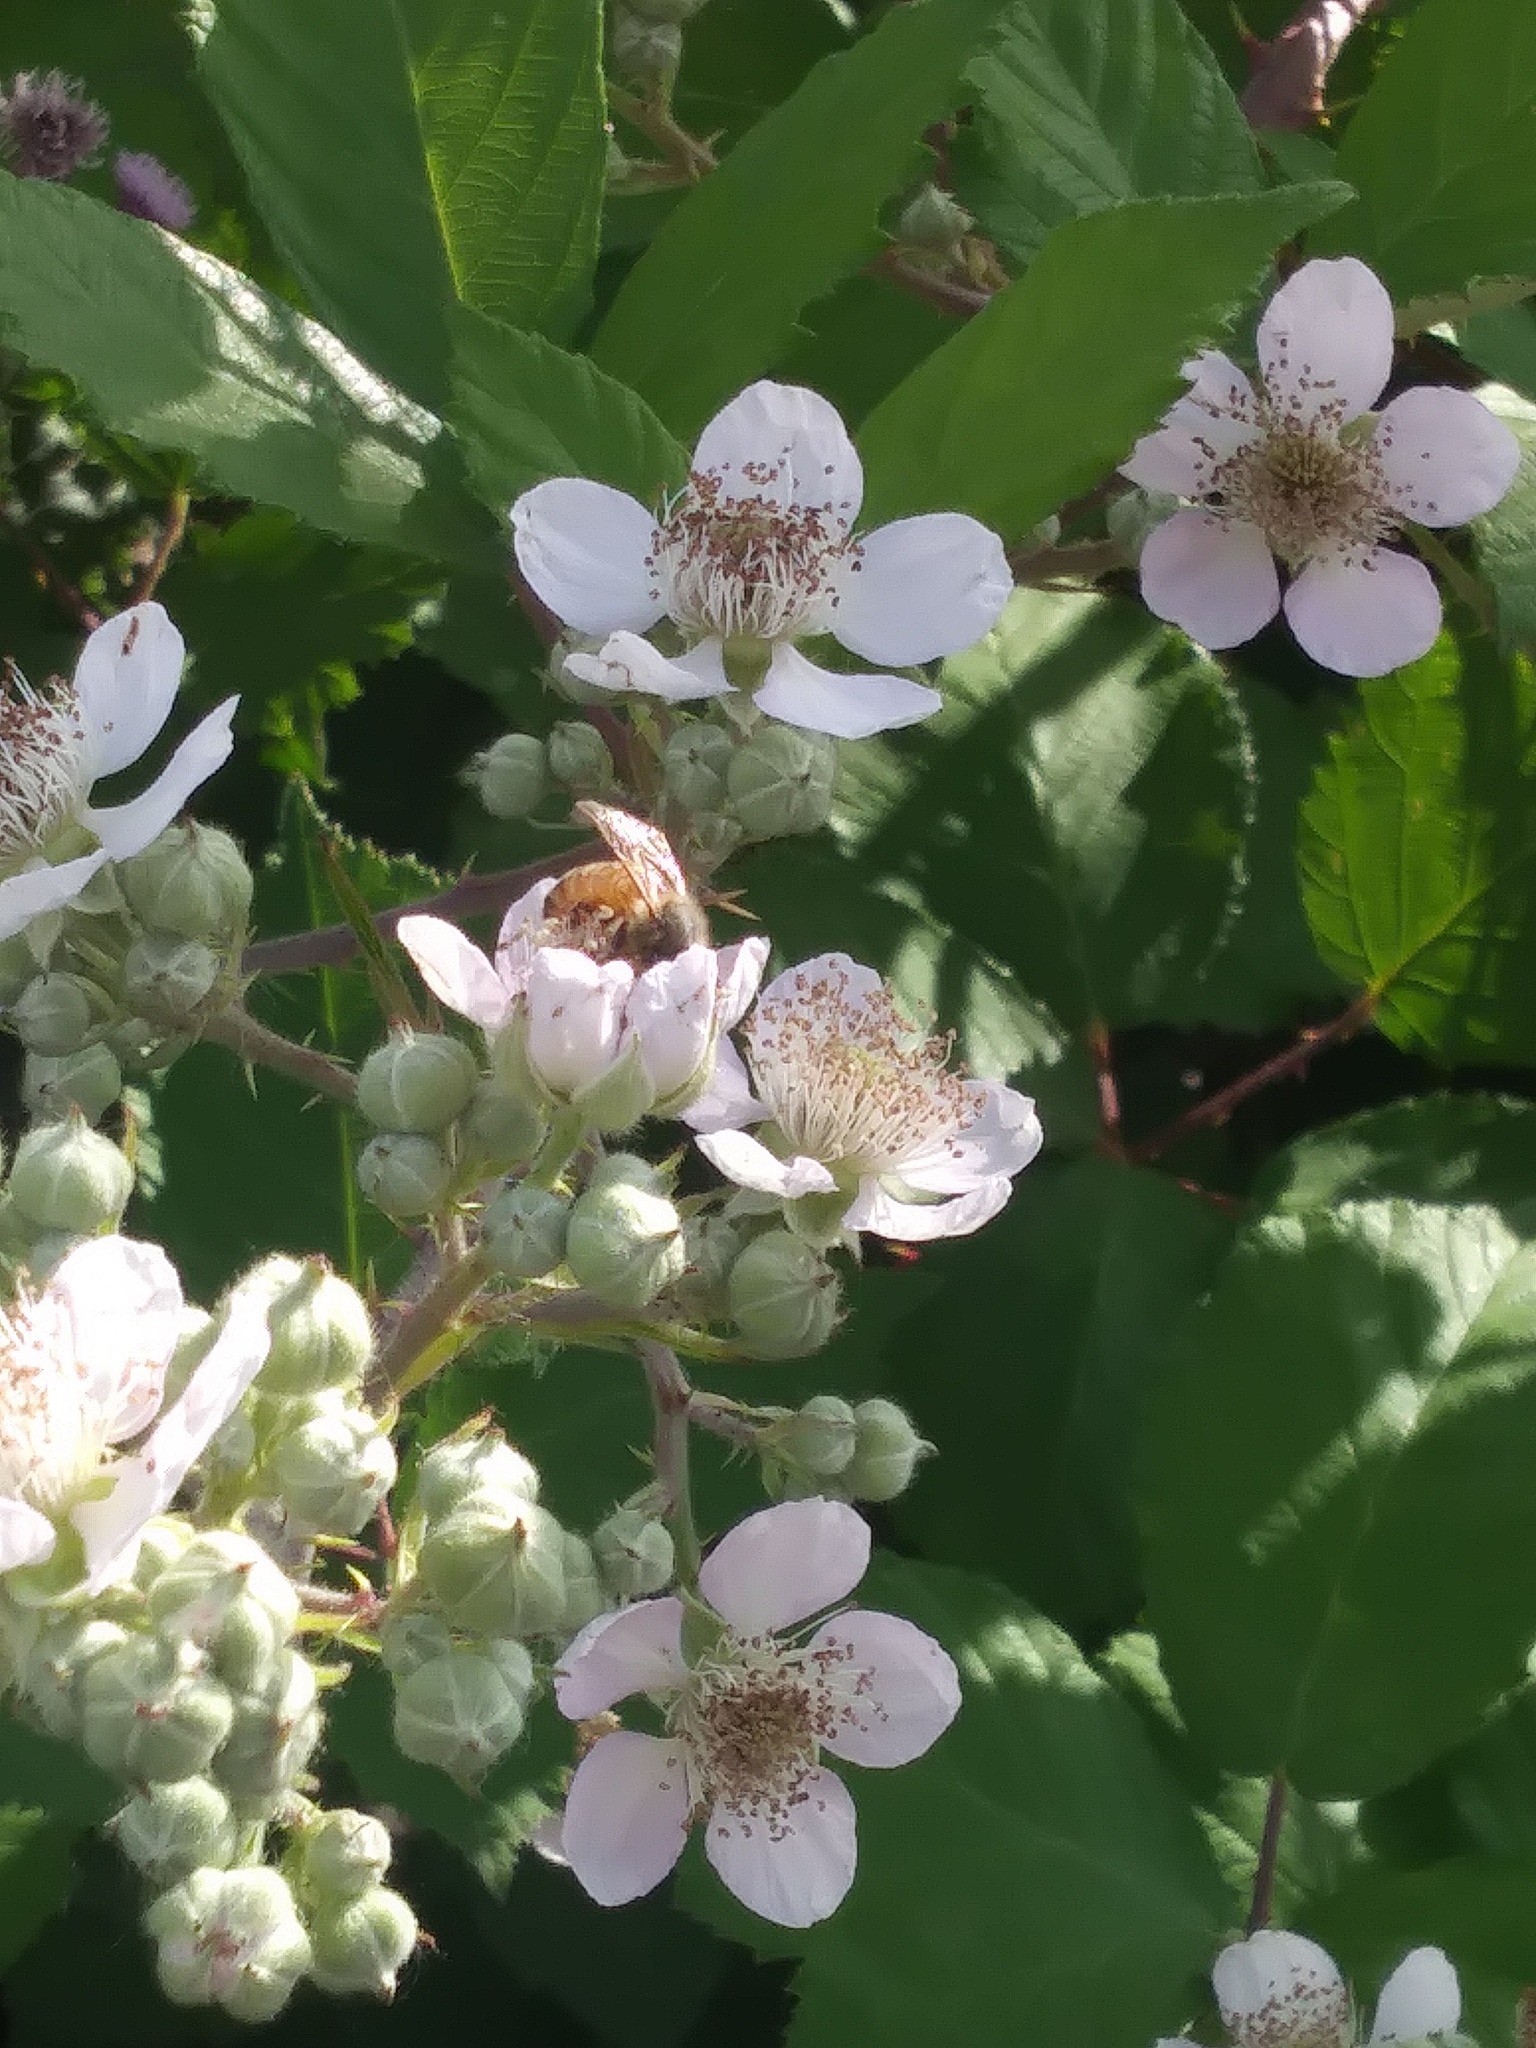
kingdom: Animalia
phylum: Arthropoda
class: Insecta
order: Hymenoptera
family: Apidae
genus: Apis
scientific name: Apis mellifera
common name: Honey bee
